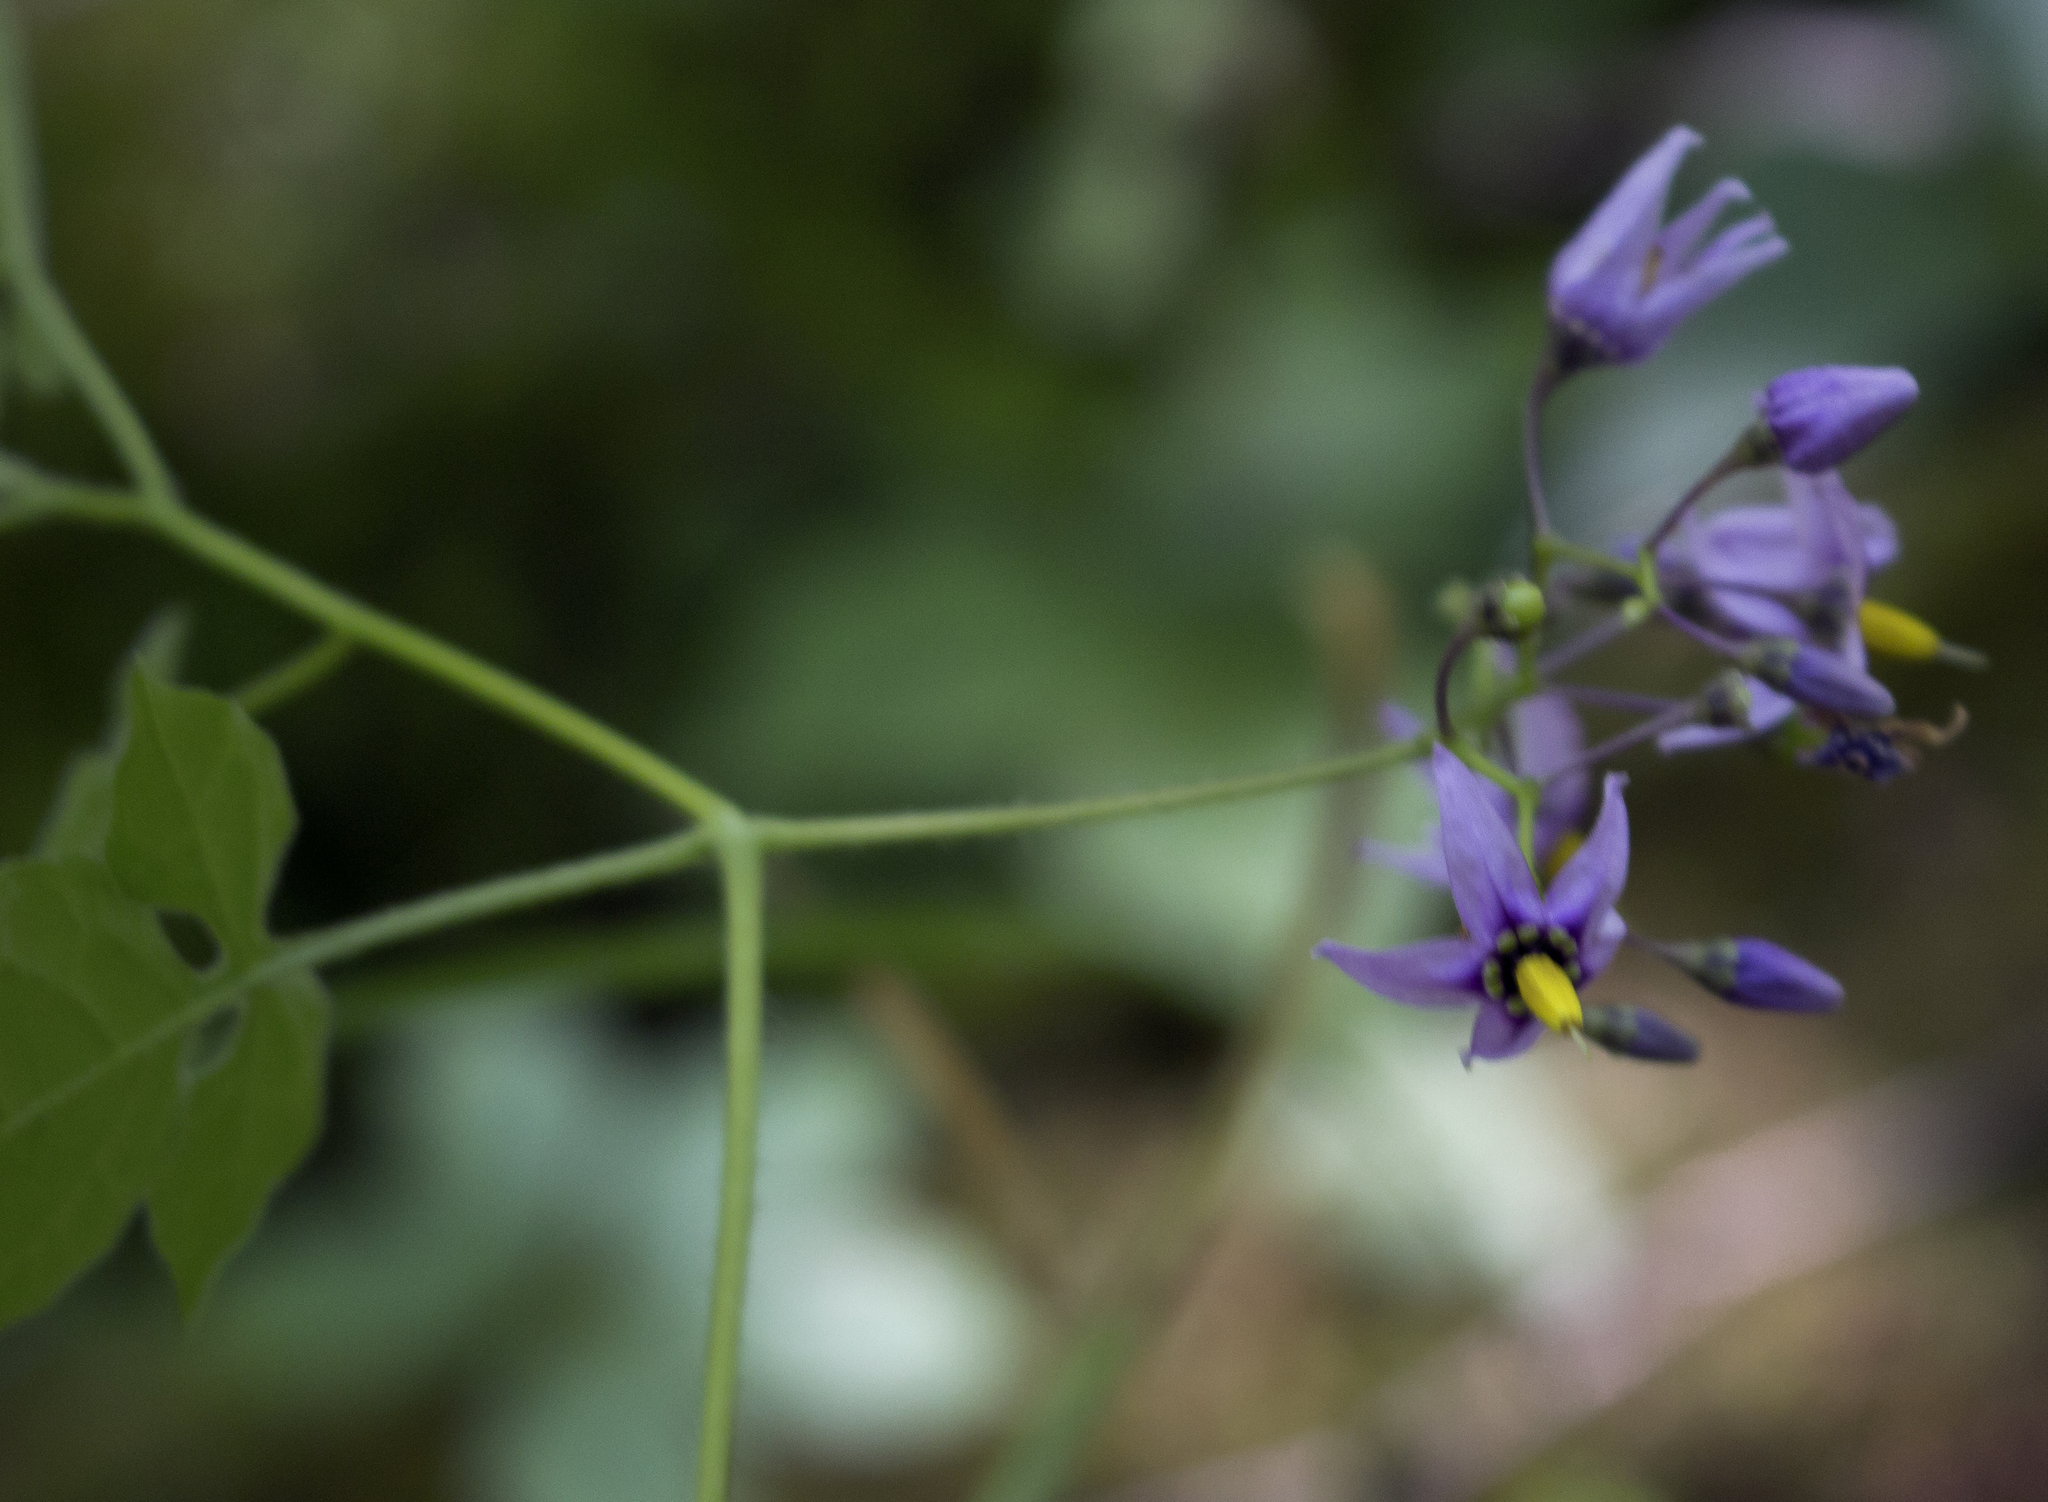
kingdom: Plantae
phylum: Tracheophyta
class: Magnoliopsida
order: Solanales
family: Solanaceae
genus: Solanum
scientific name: Solanum dulcamara
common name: Climbing nightshade
